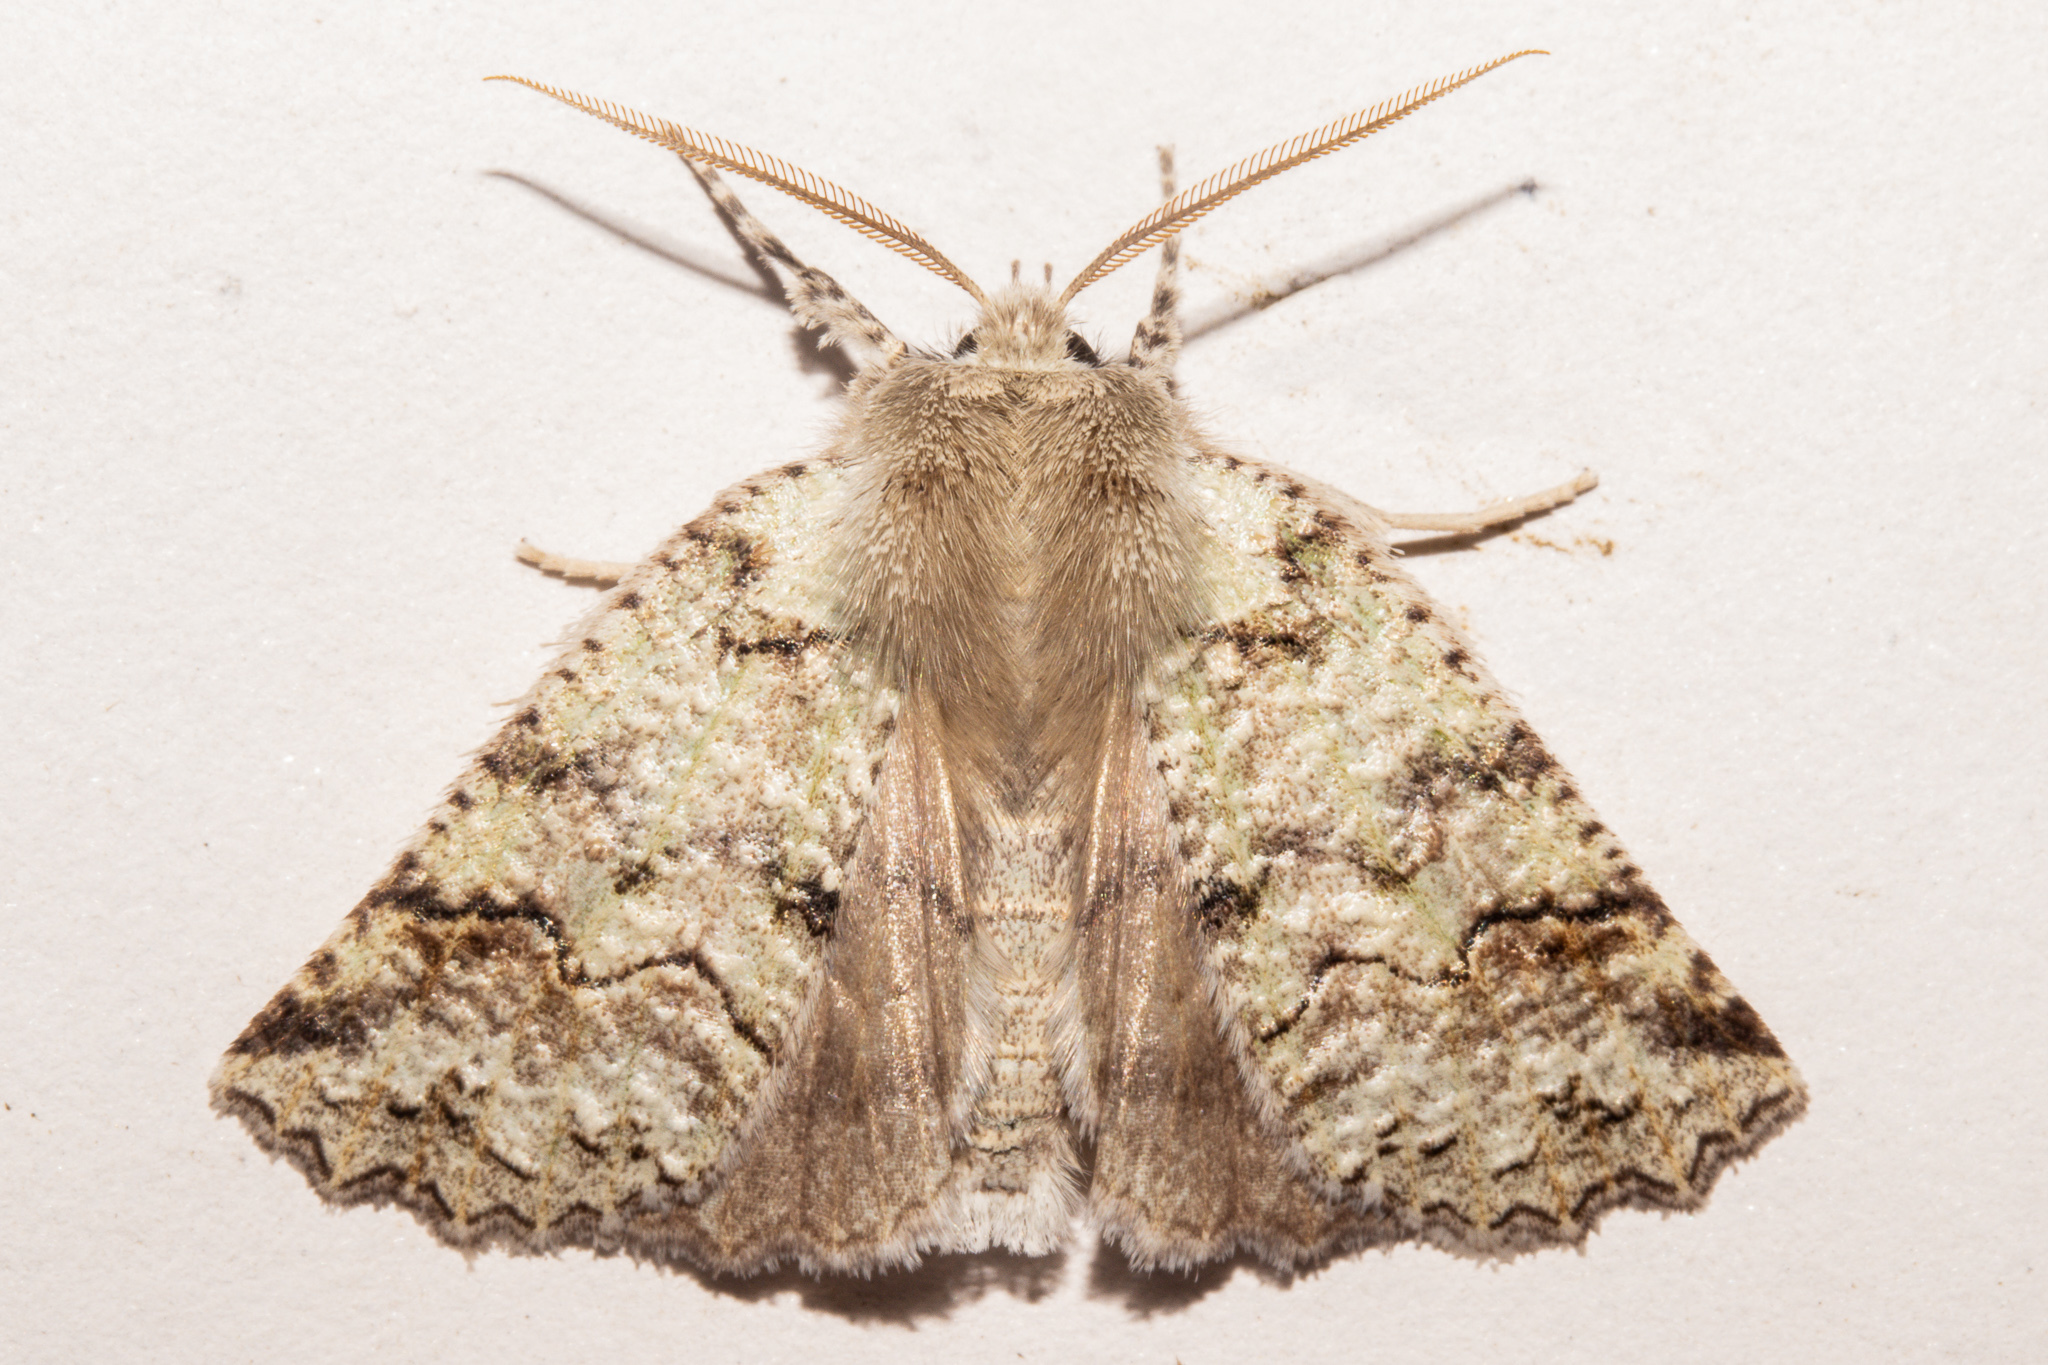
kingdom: Animalia
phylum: Arthropoda
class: Insecta
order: Lepidoptera
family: Geometridae
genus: Declana
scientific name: Declana floccosa
